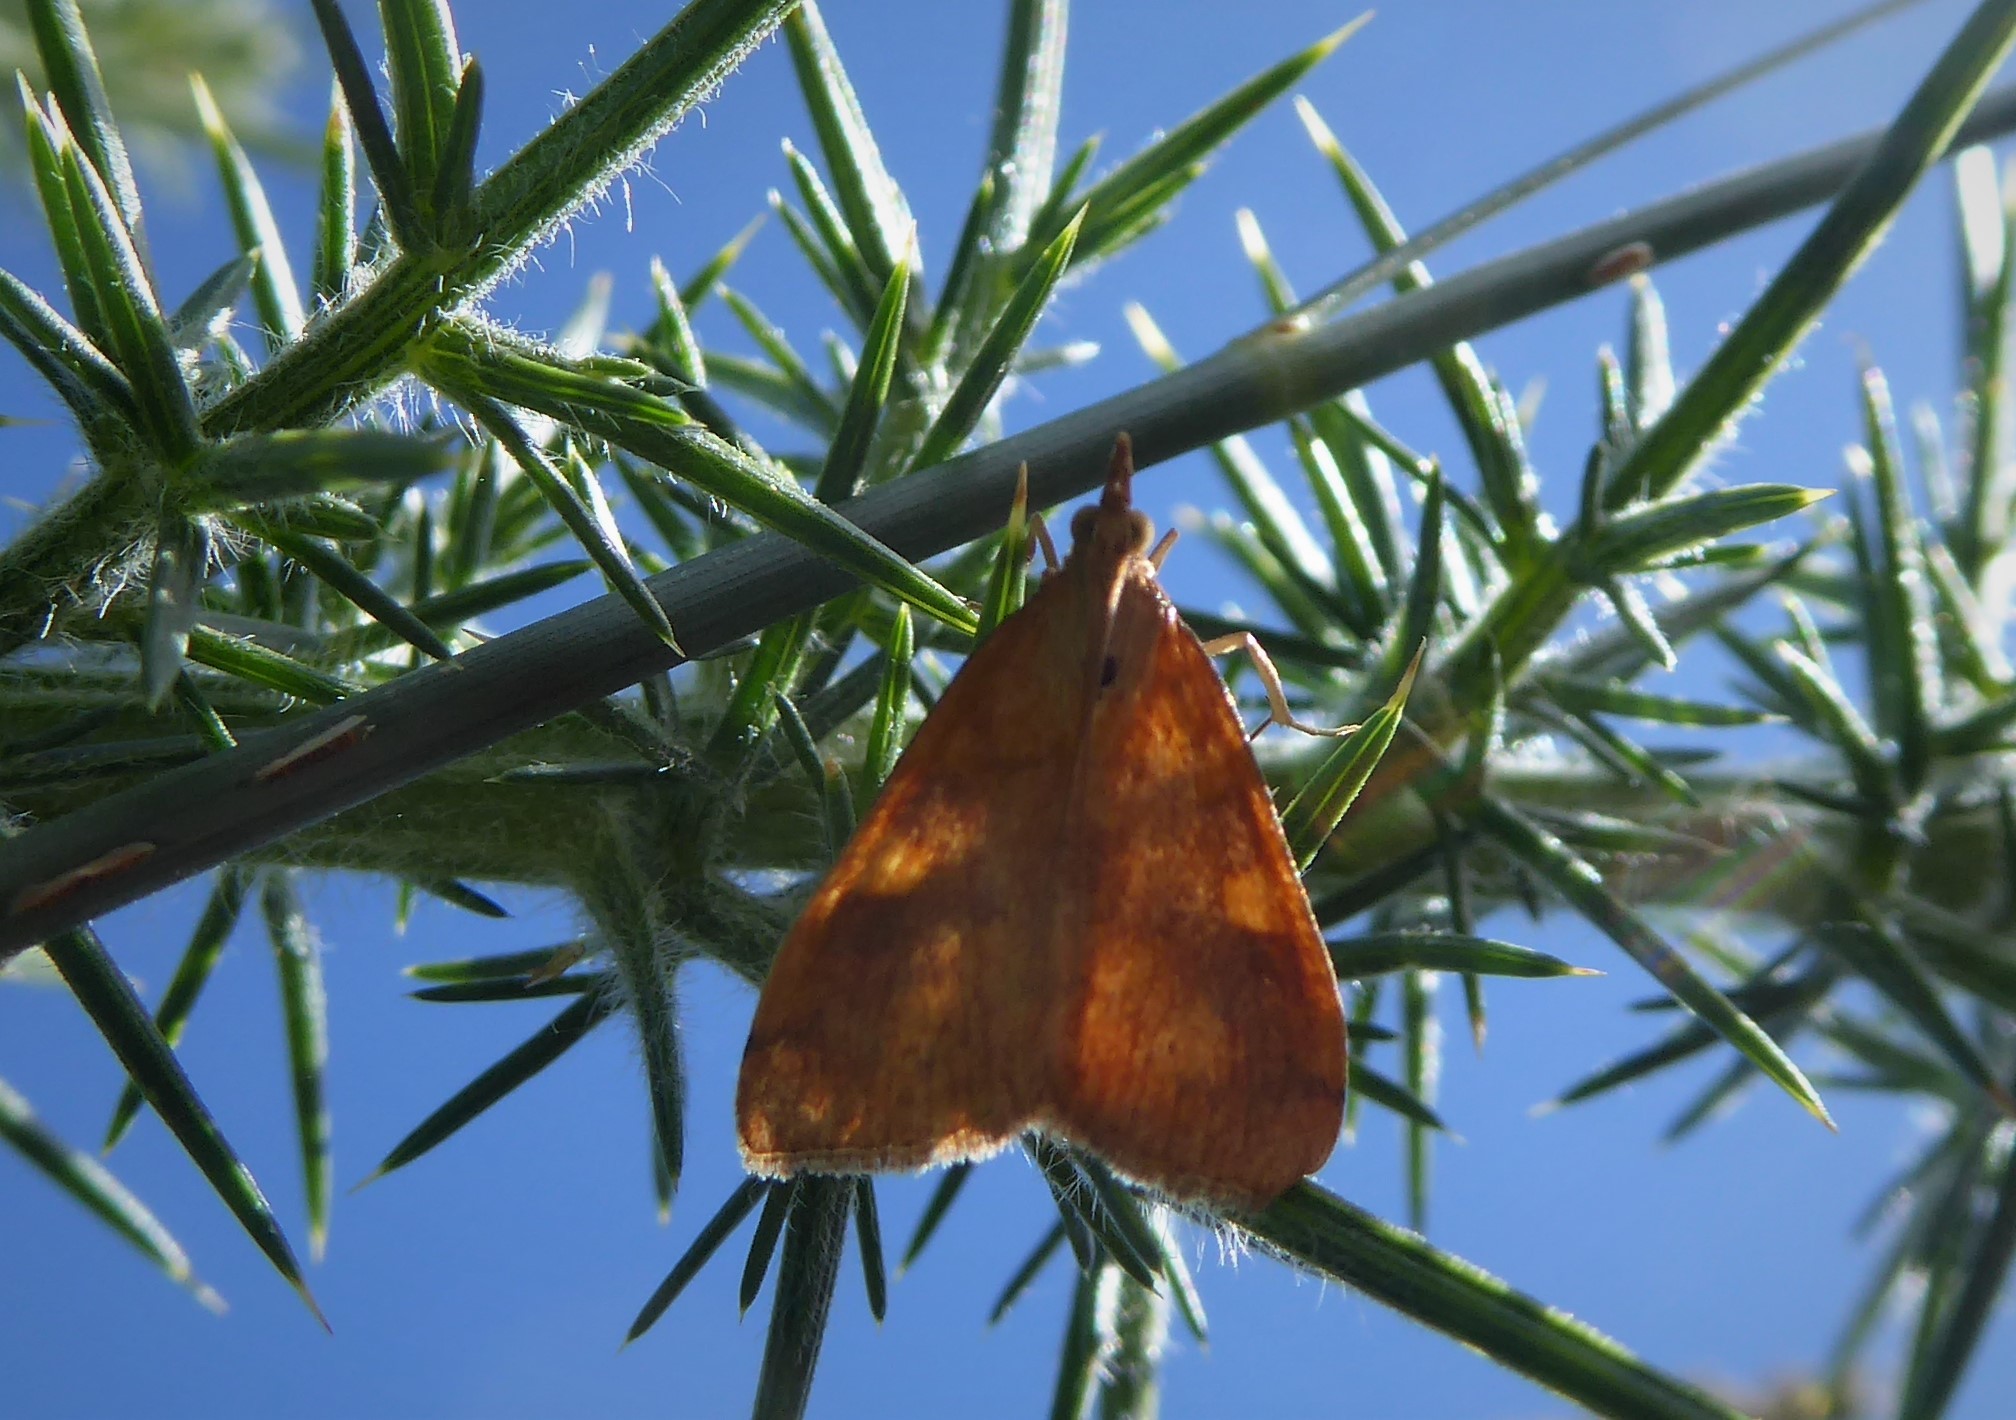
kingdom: Animalia
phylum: Arthropoda
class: Insecta
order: Lepidoptera
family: Crambidae
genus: Udea
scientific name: Udea Mnesictena flavidalis
